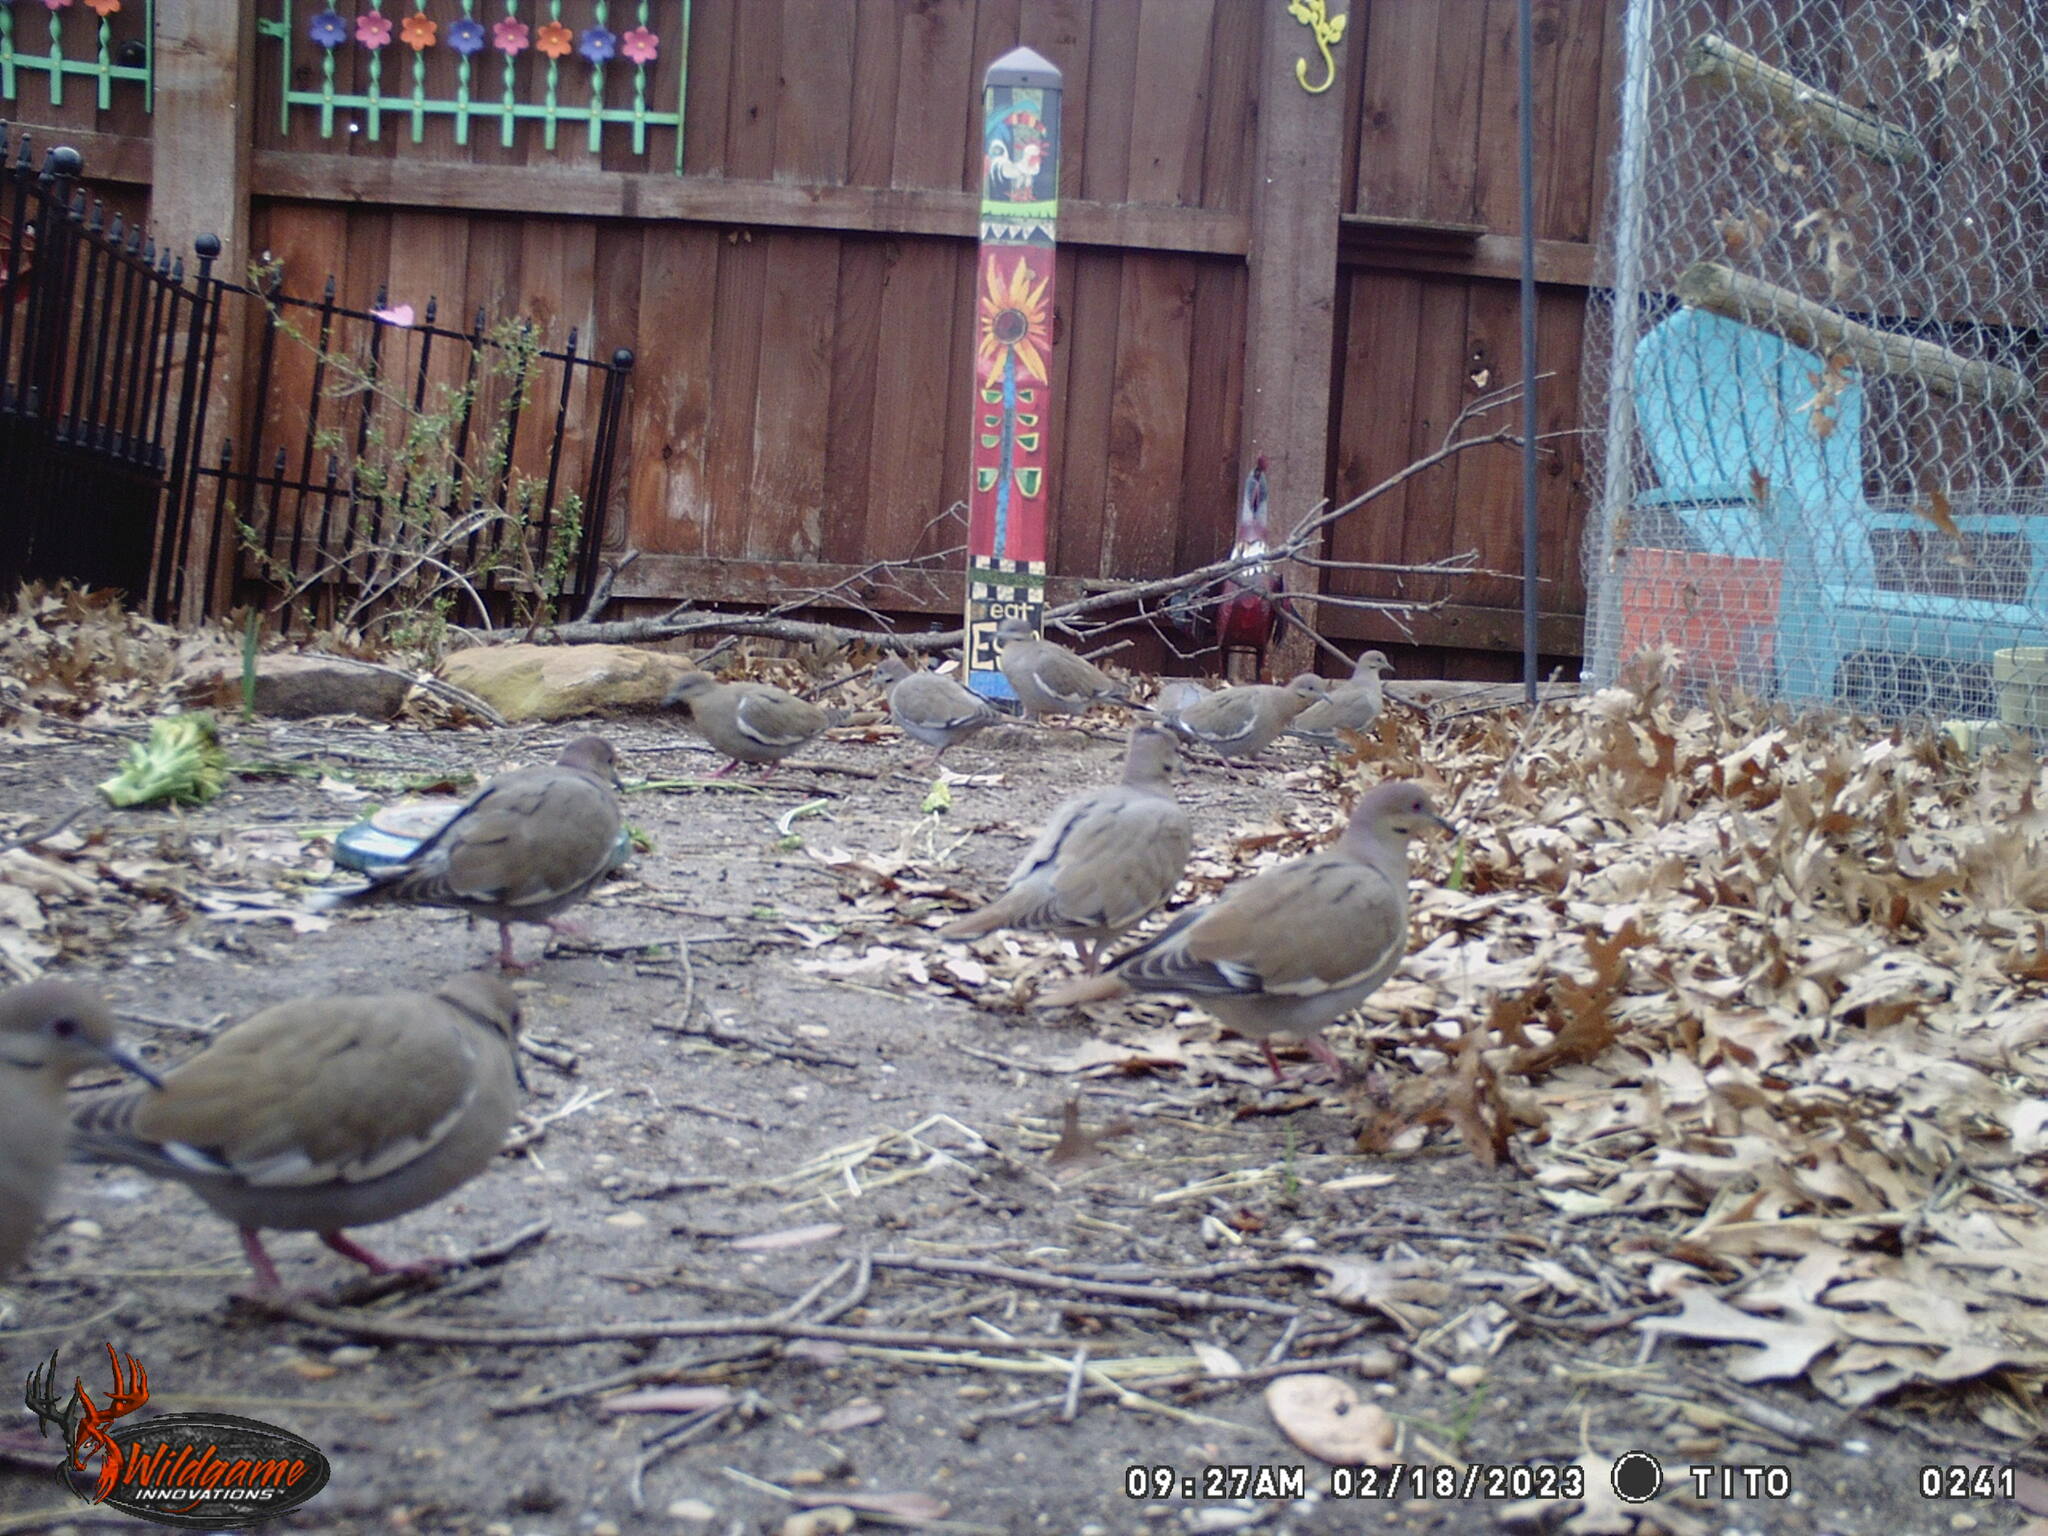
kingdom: Animalia
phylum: Chordata
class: Aves
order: Columbiformes
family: Columbidae
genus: Zenaida
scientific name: Zenaida asiatica
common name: White-winged dove
